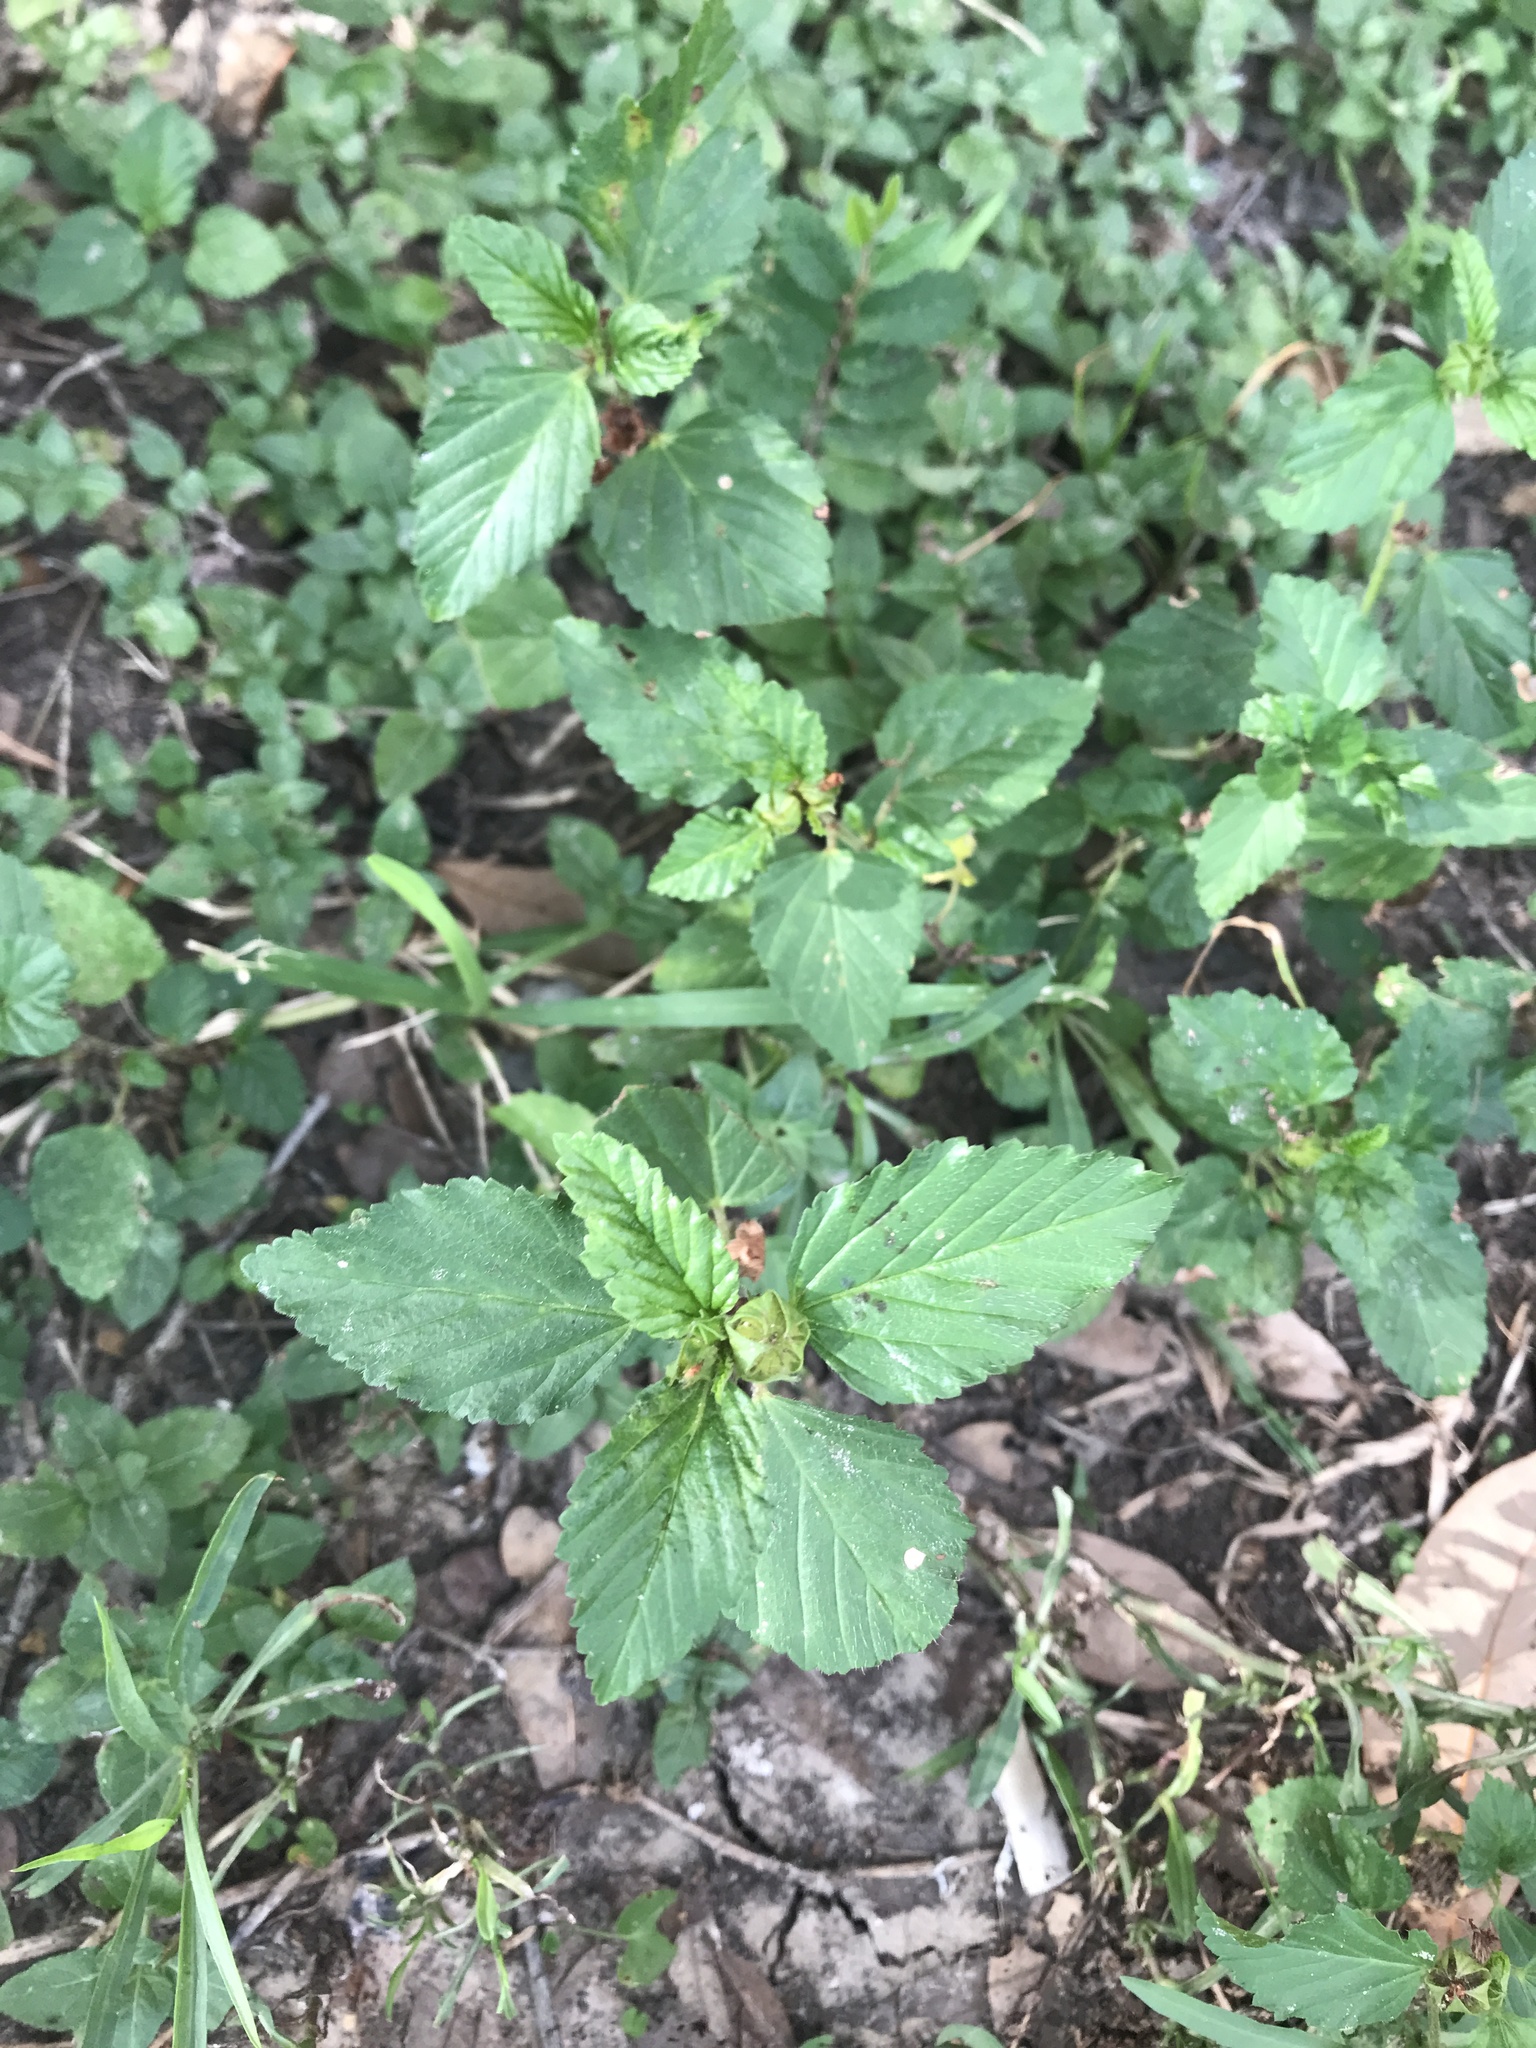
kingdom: Plantae
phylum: Tracheophyta
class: Magnoliopsida
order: Malvales
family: Malvaceae
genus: Malvastrum
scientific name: Malvastrum coromandelianum
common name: Threelobe false mallow
